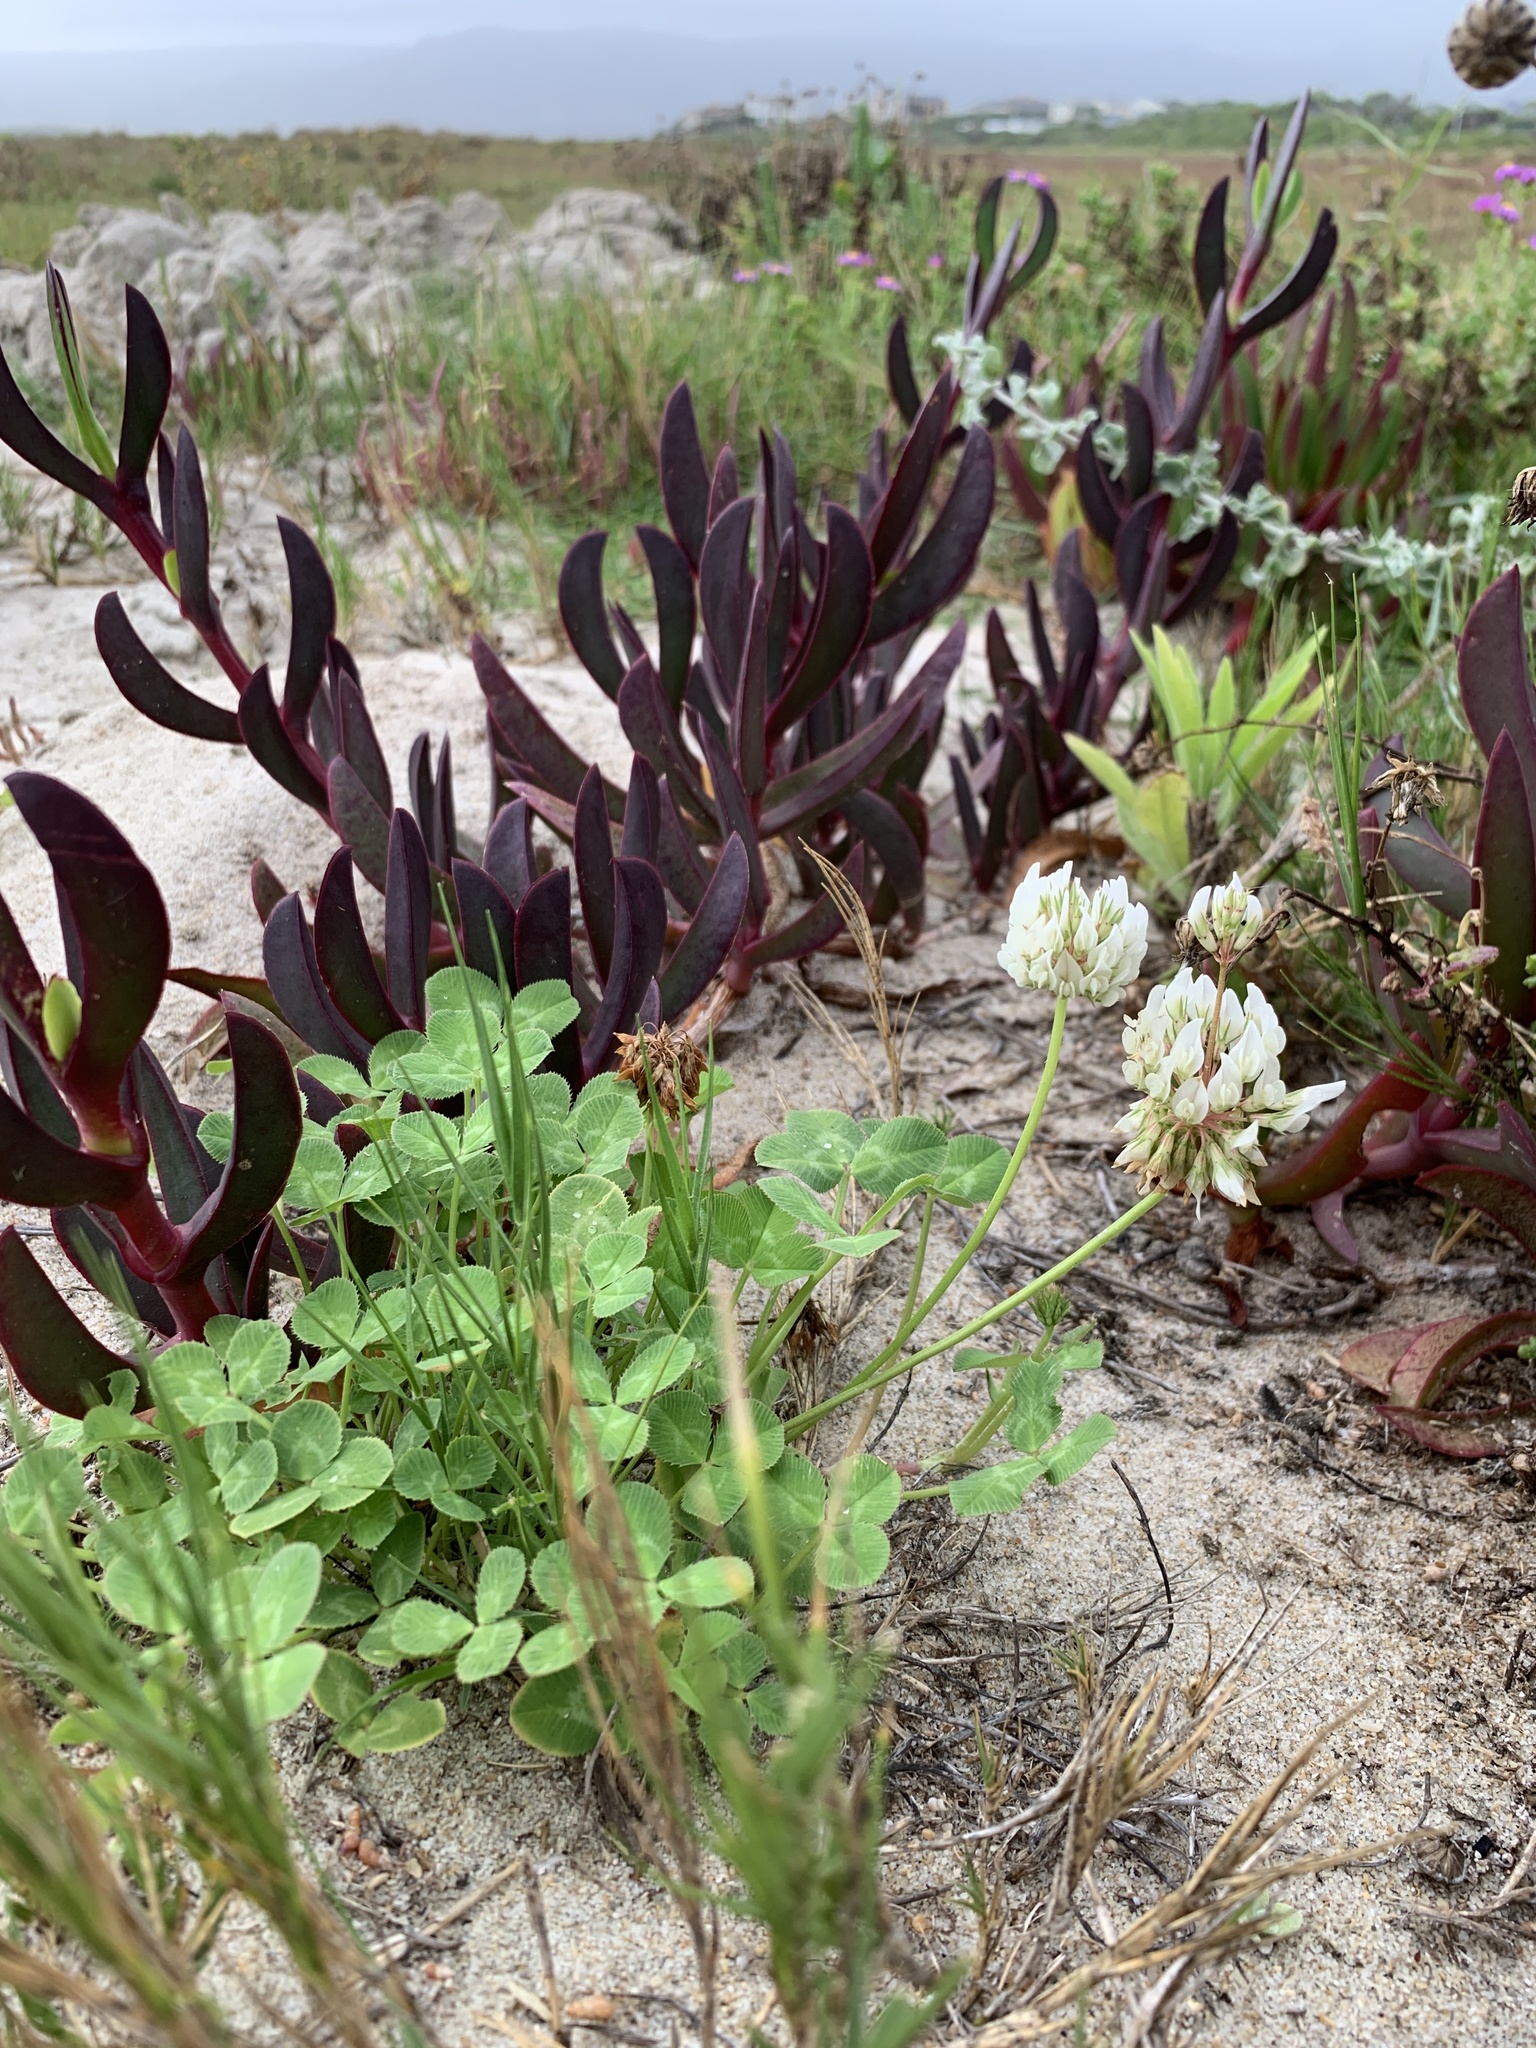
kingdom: Plantae
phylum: Tracheophyta
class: Magnoliopsida
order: Fabales
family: Fabaceae
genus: Trifolium
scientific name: Trifolium repens
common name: White clover
